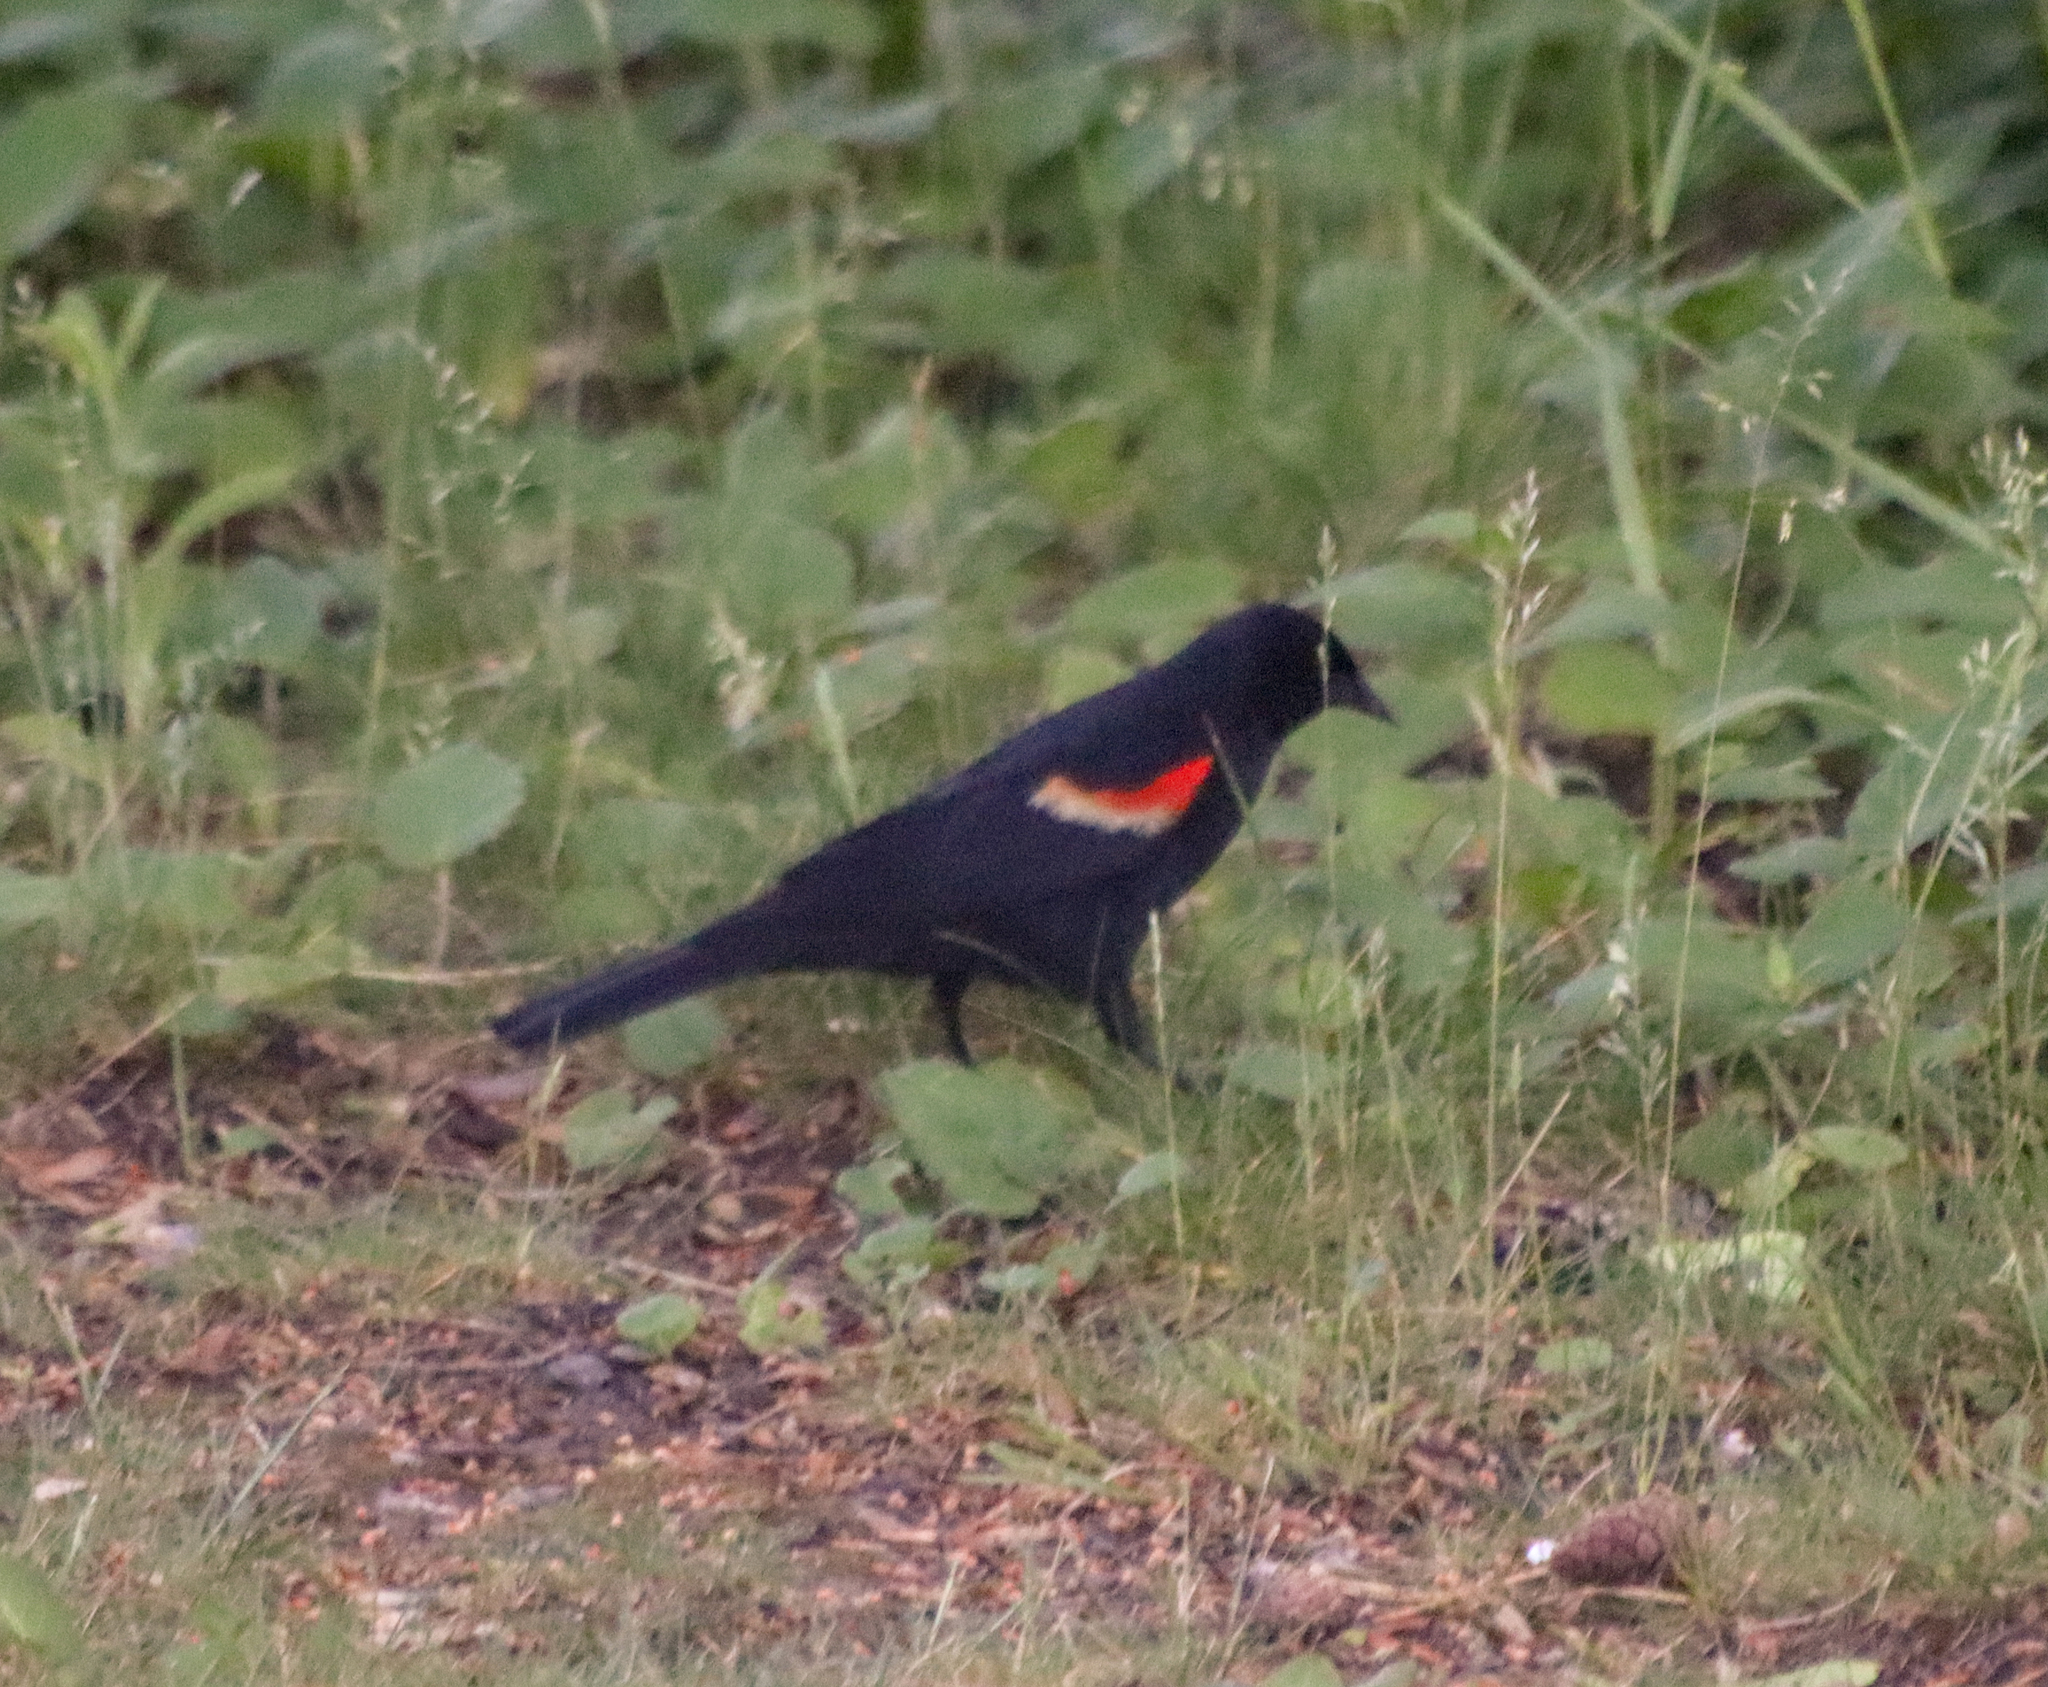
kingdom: Animalia
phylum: Chordata
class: Aves
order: Passeriformes
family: Icteridae
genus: Agelaius
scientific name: Agelaius phoeniceus
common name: Red-winged blackbird
